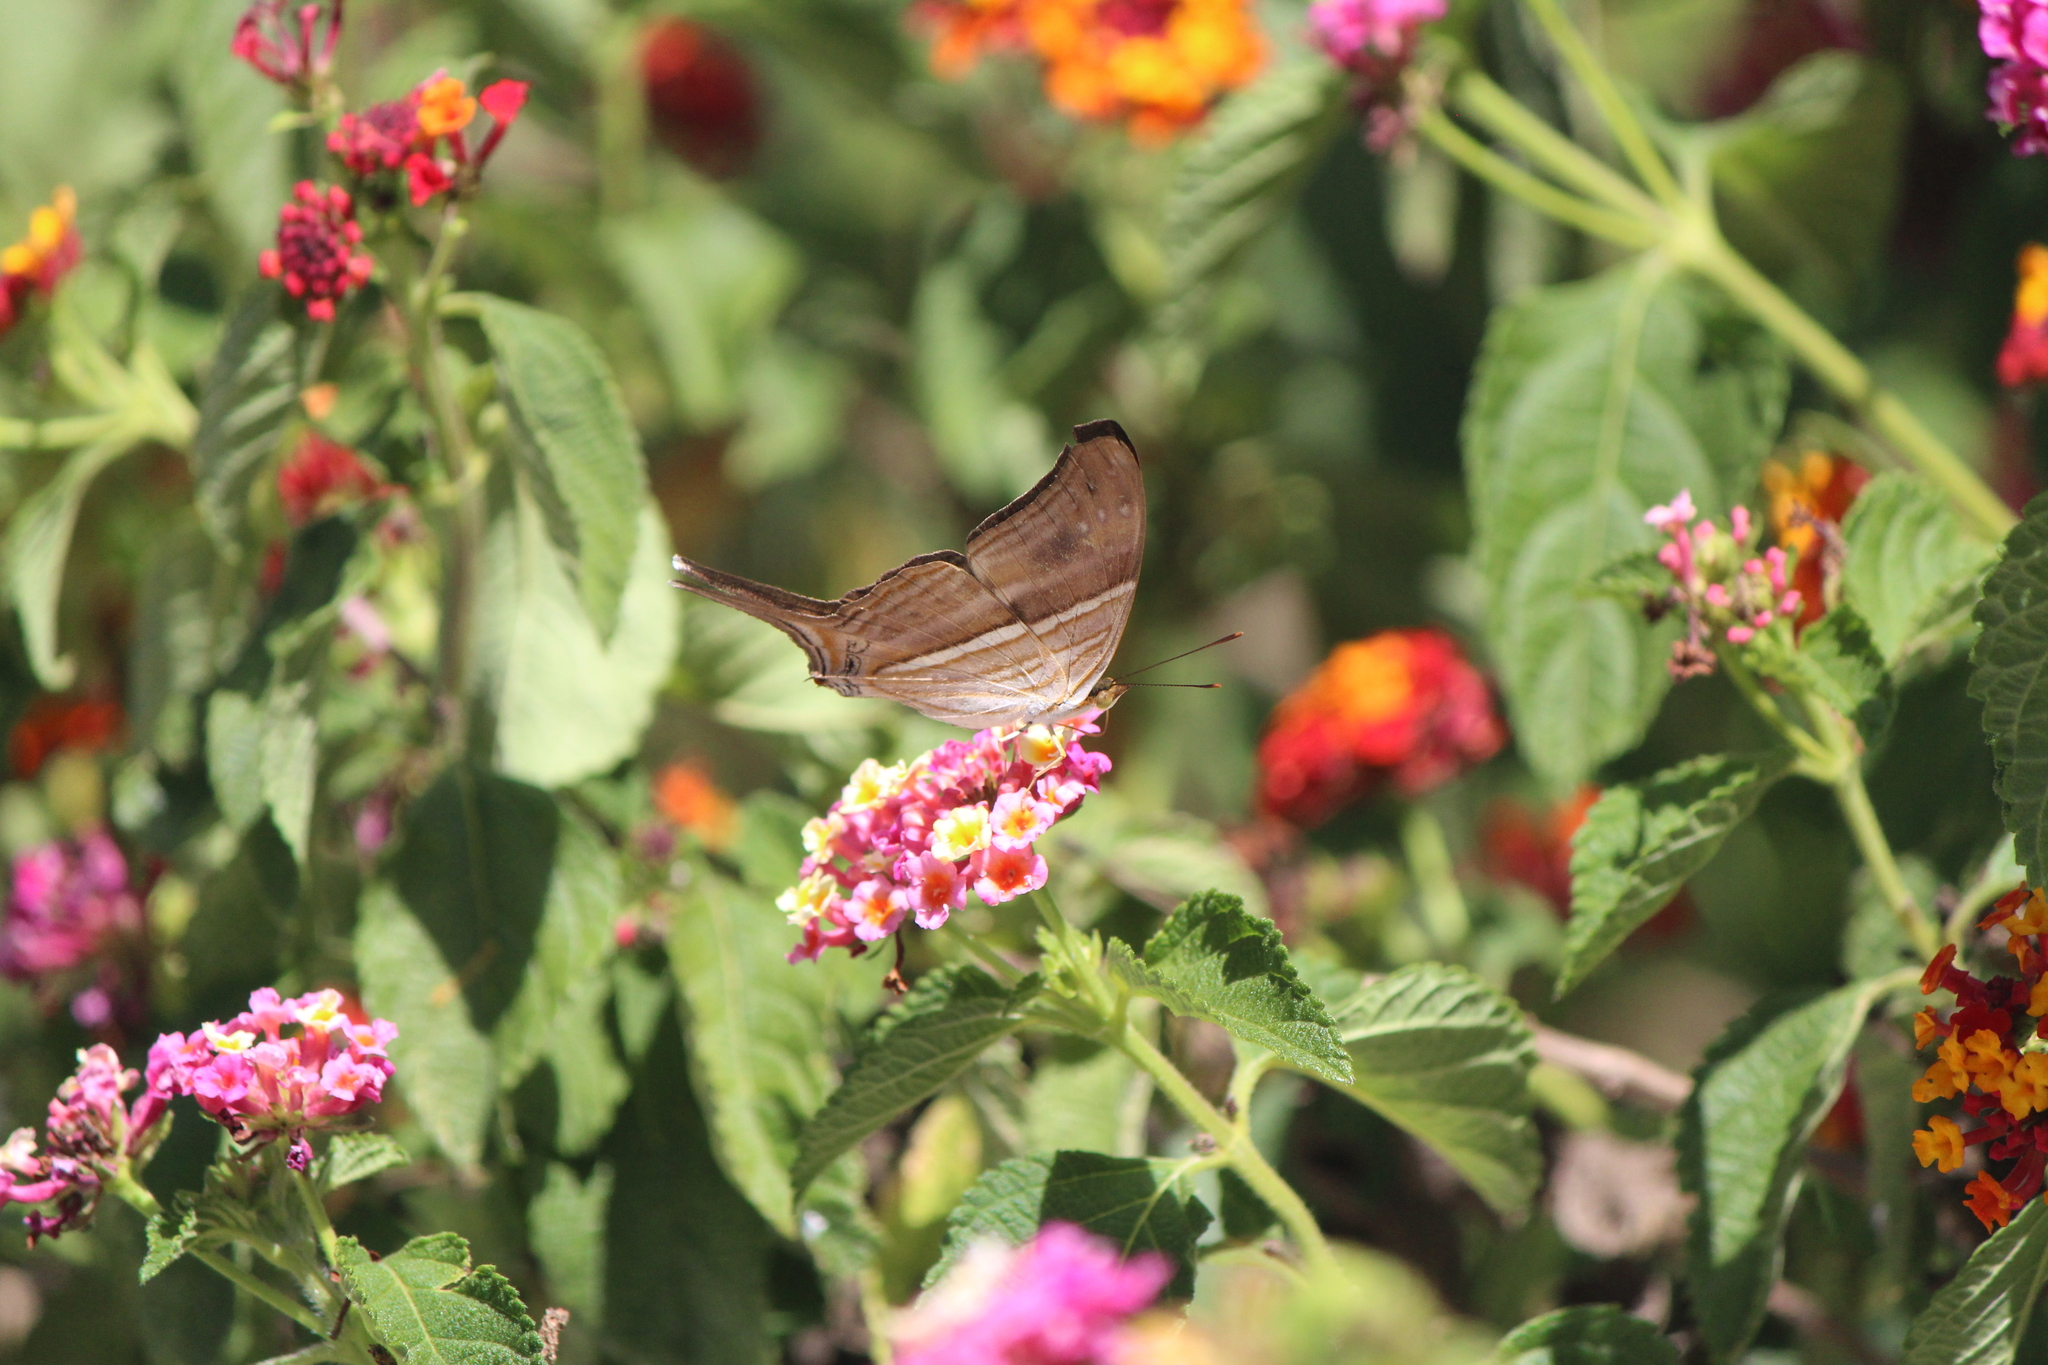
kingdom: Animalia
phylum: Arthropoda
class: Insecta
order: Lepidoptera
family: Nymphalidae
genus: Marpesia
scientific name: Marpesia chiron
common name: Many-banded daggerwing
